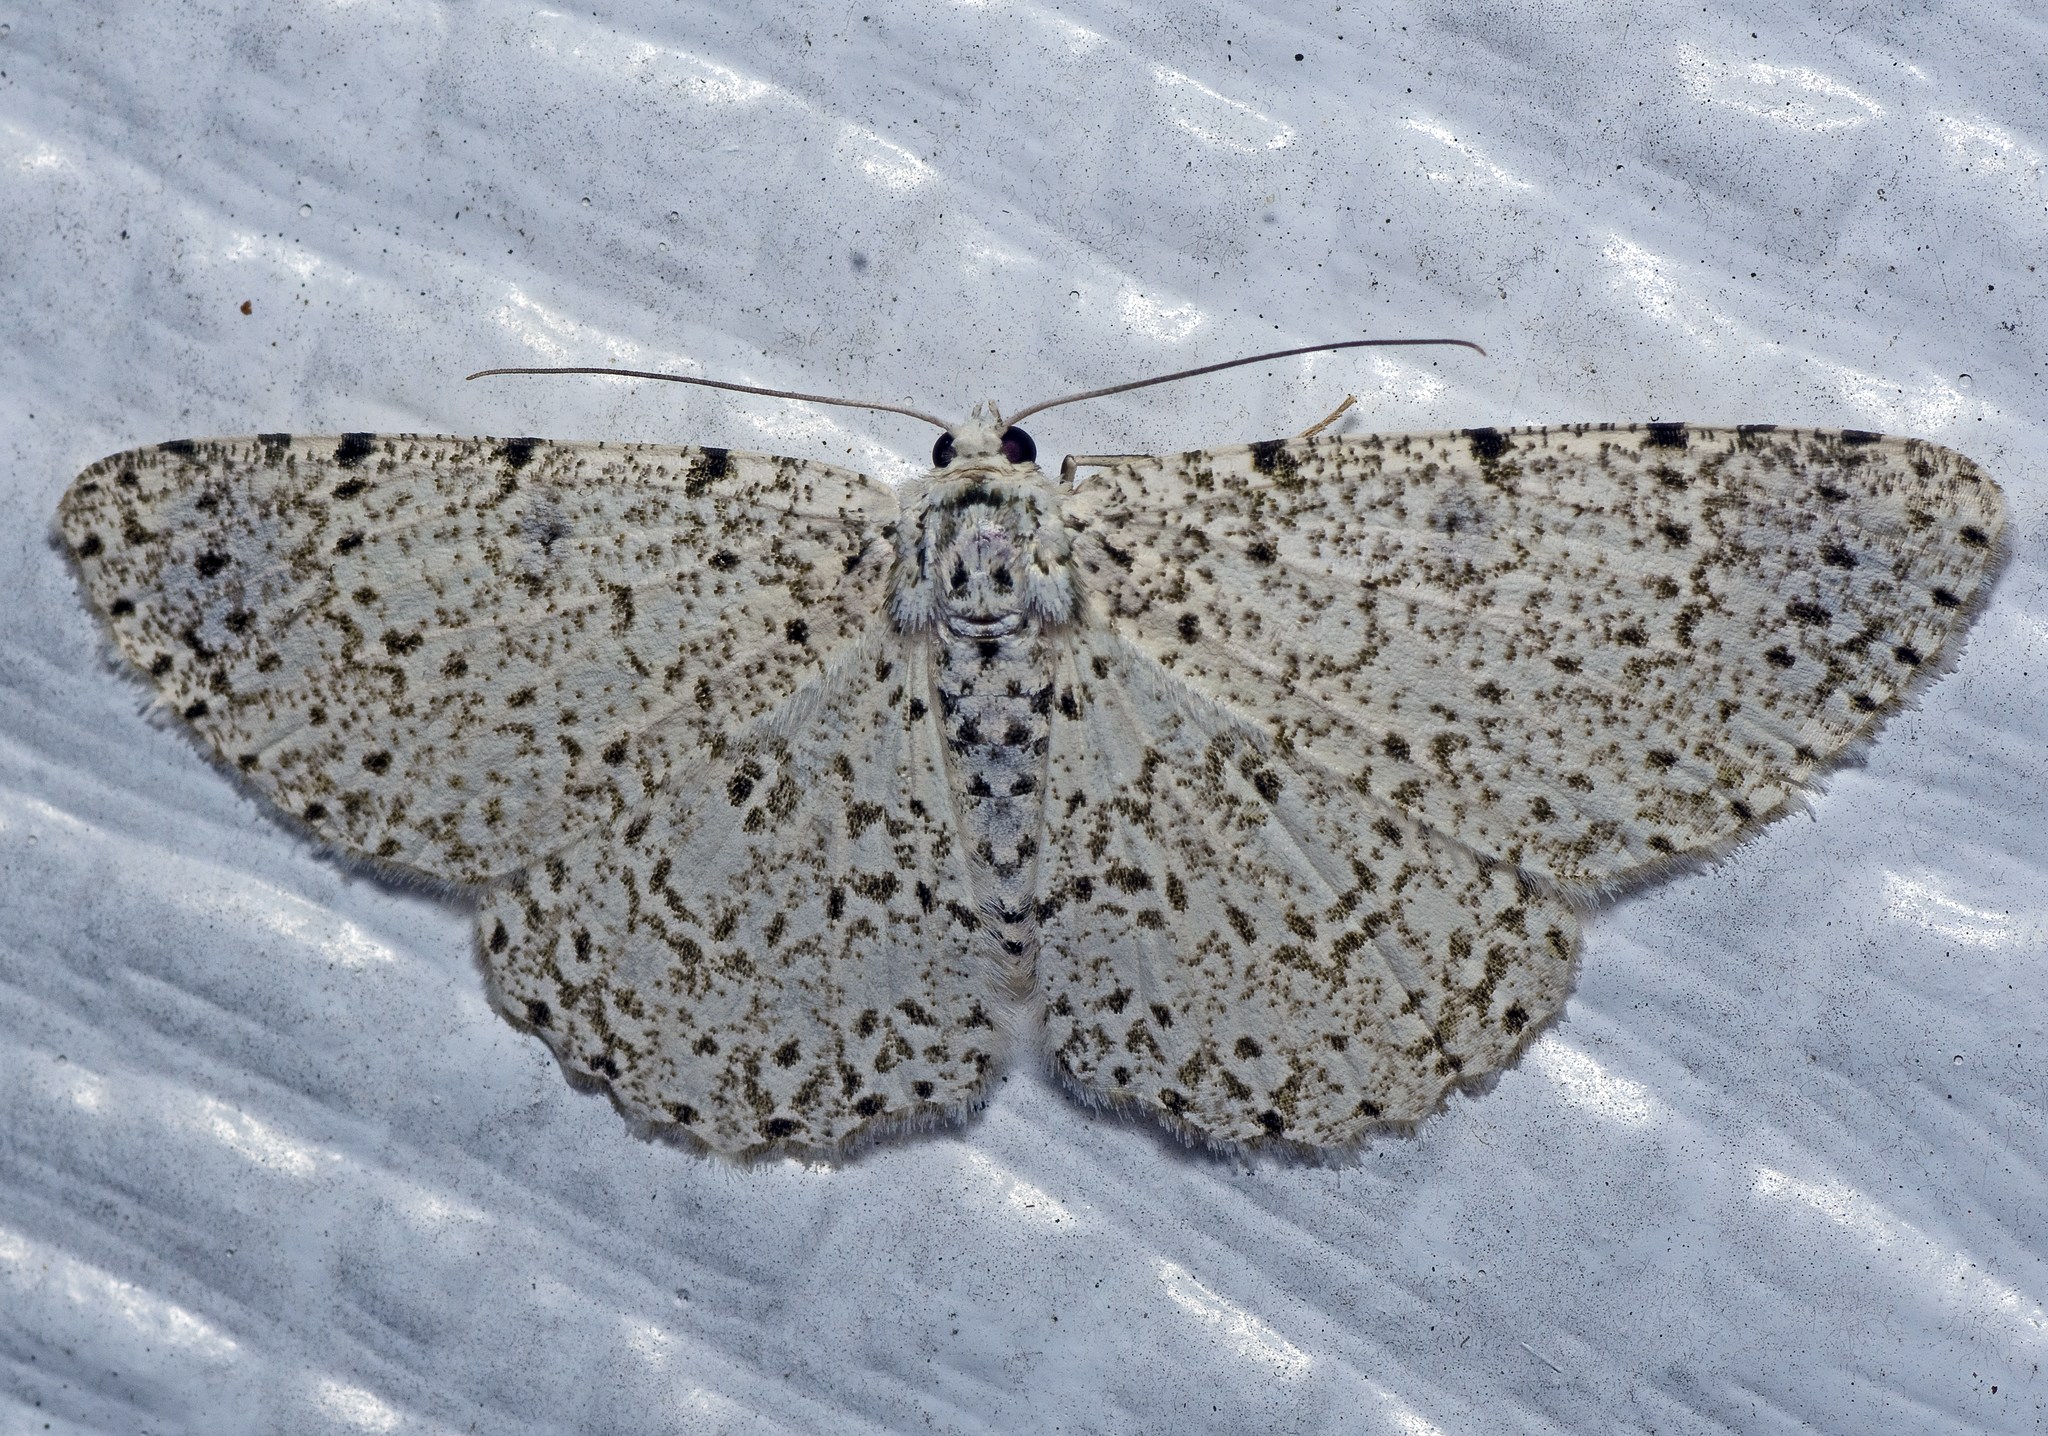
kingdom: Animalia
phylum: Arthropoda
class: Insecta
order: Lepidoptera
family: Geometridae
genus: Catoria
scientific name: Catoria camelaria
